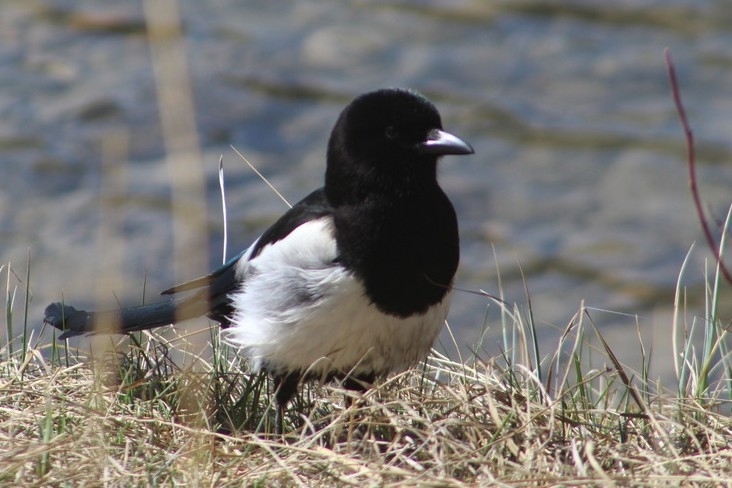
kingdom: Animalia
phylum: Chordata
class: Aves
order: Passeriformes
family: Corvidae
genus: Pica
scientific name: Pica hudsonia
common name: Black-billed magpie
